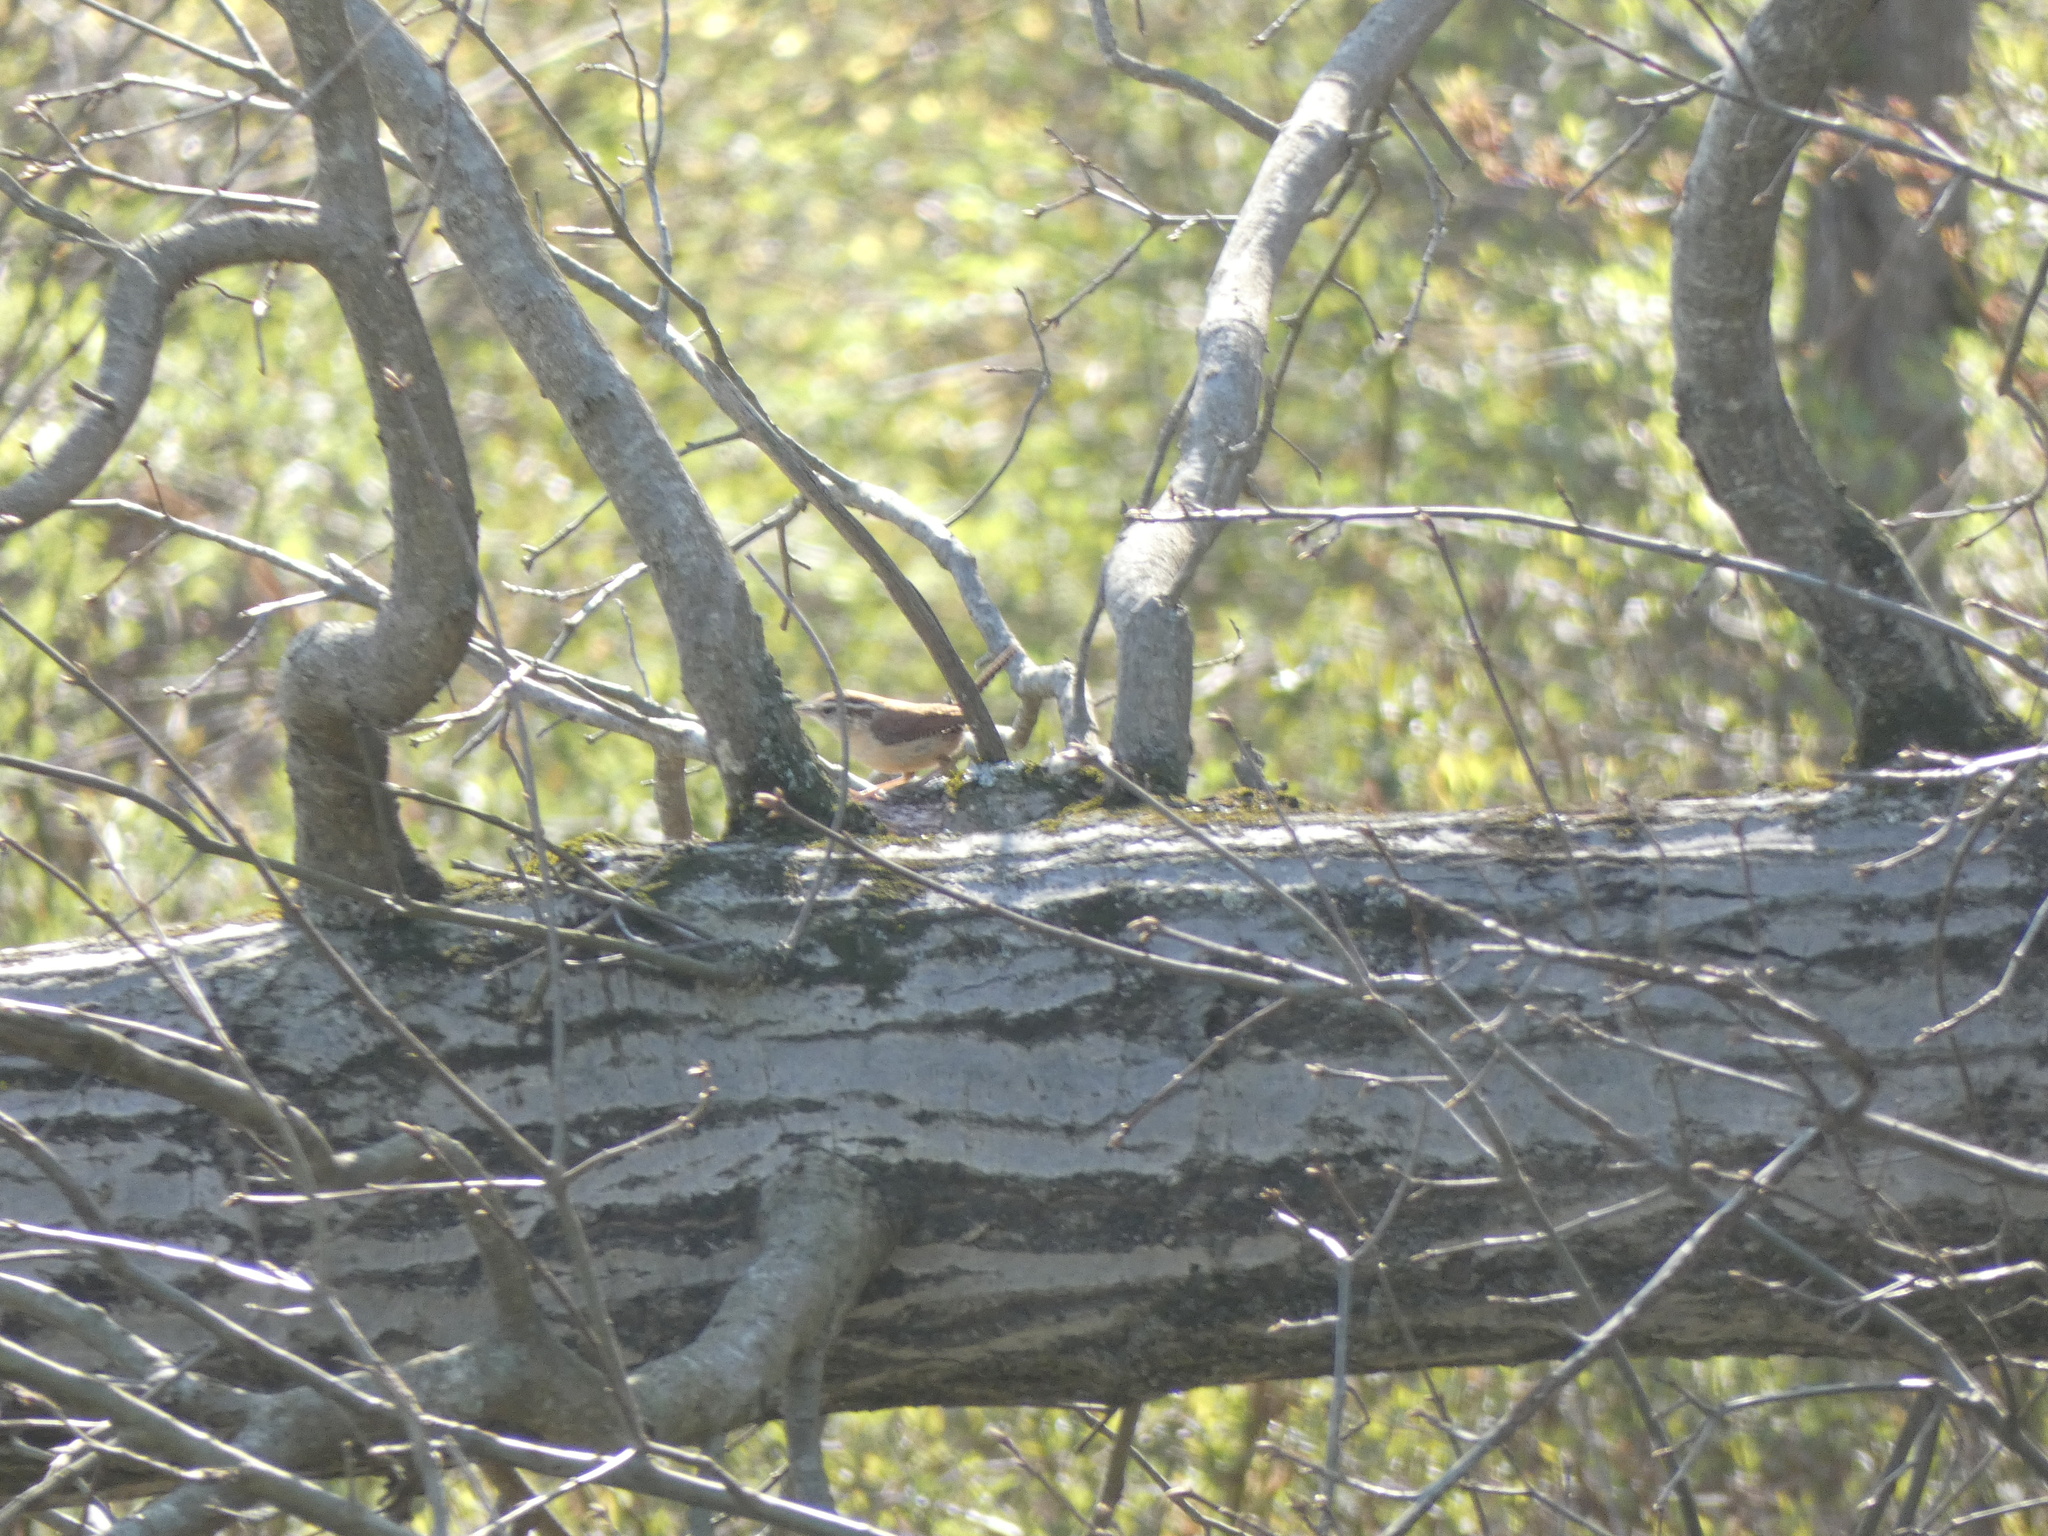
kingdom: Animalia
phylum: Chordata
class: Aves
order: Passeriformes
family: Troglodytidae
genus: Thryothorus
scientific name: Thryothorus ludovicianus
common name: Carolina wren
